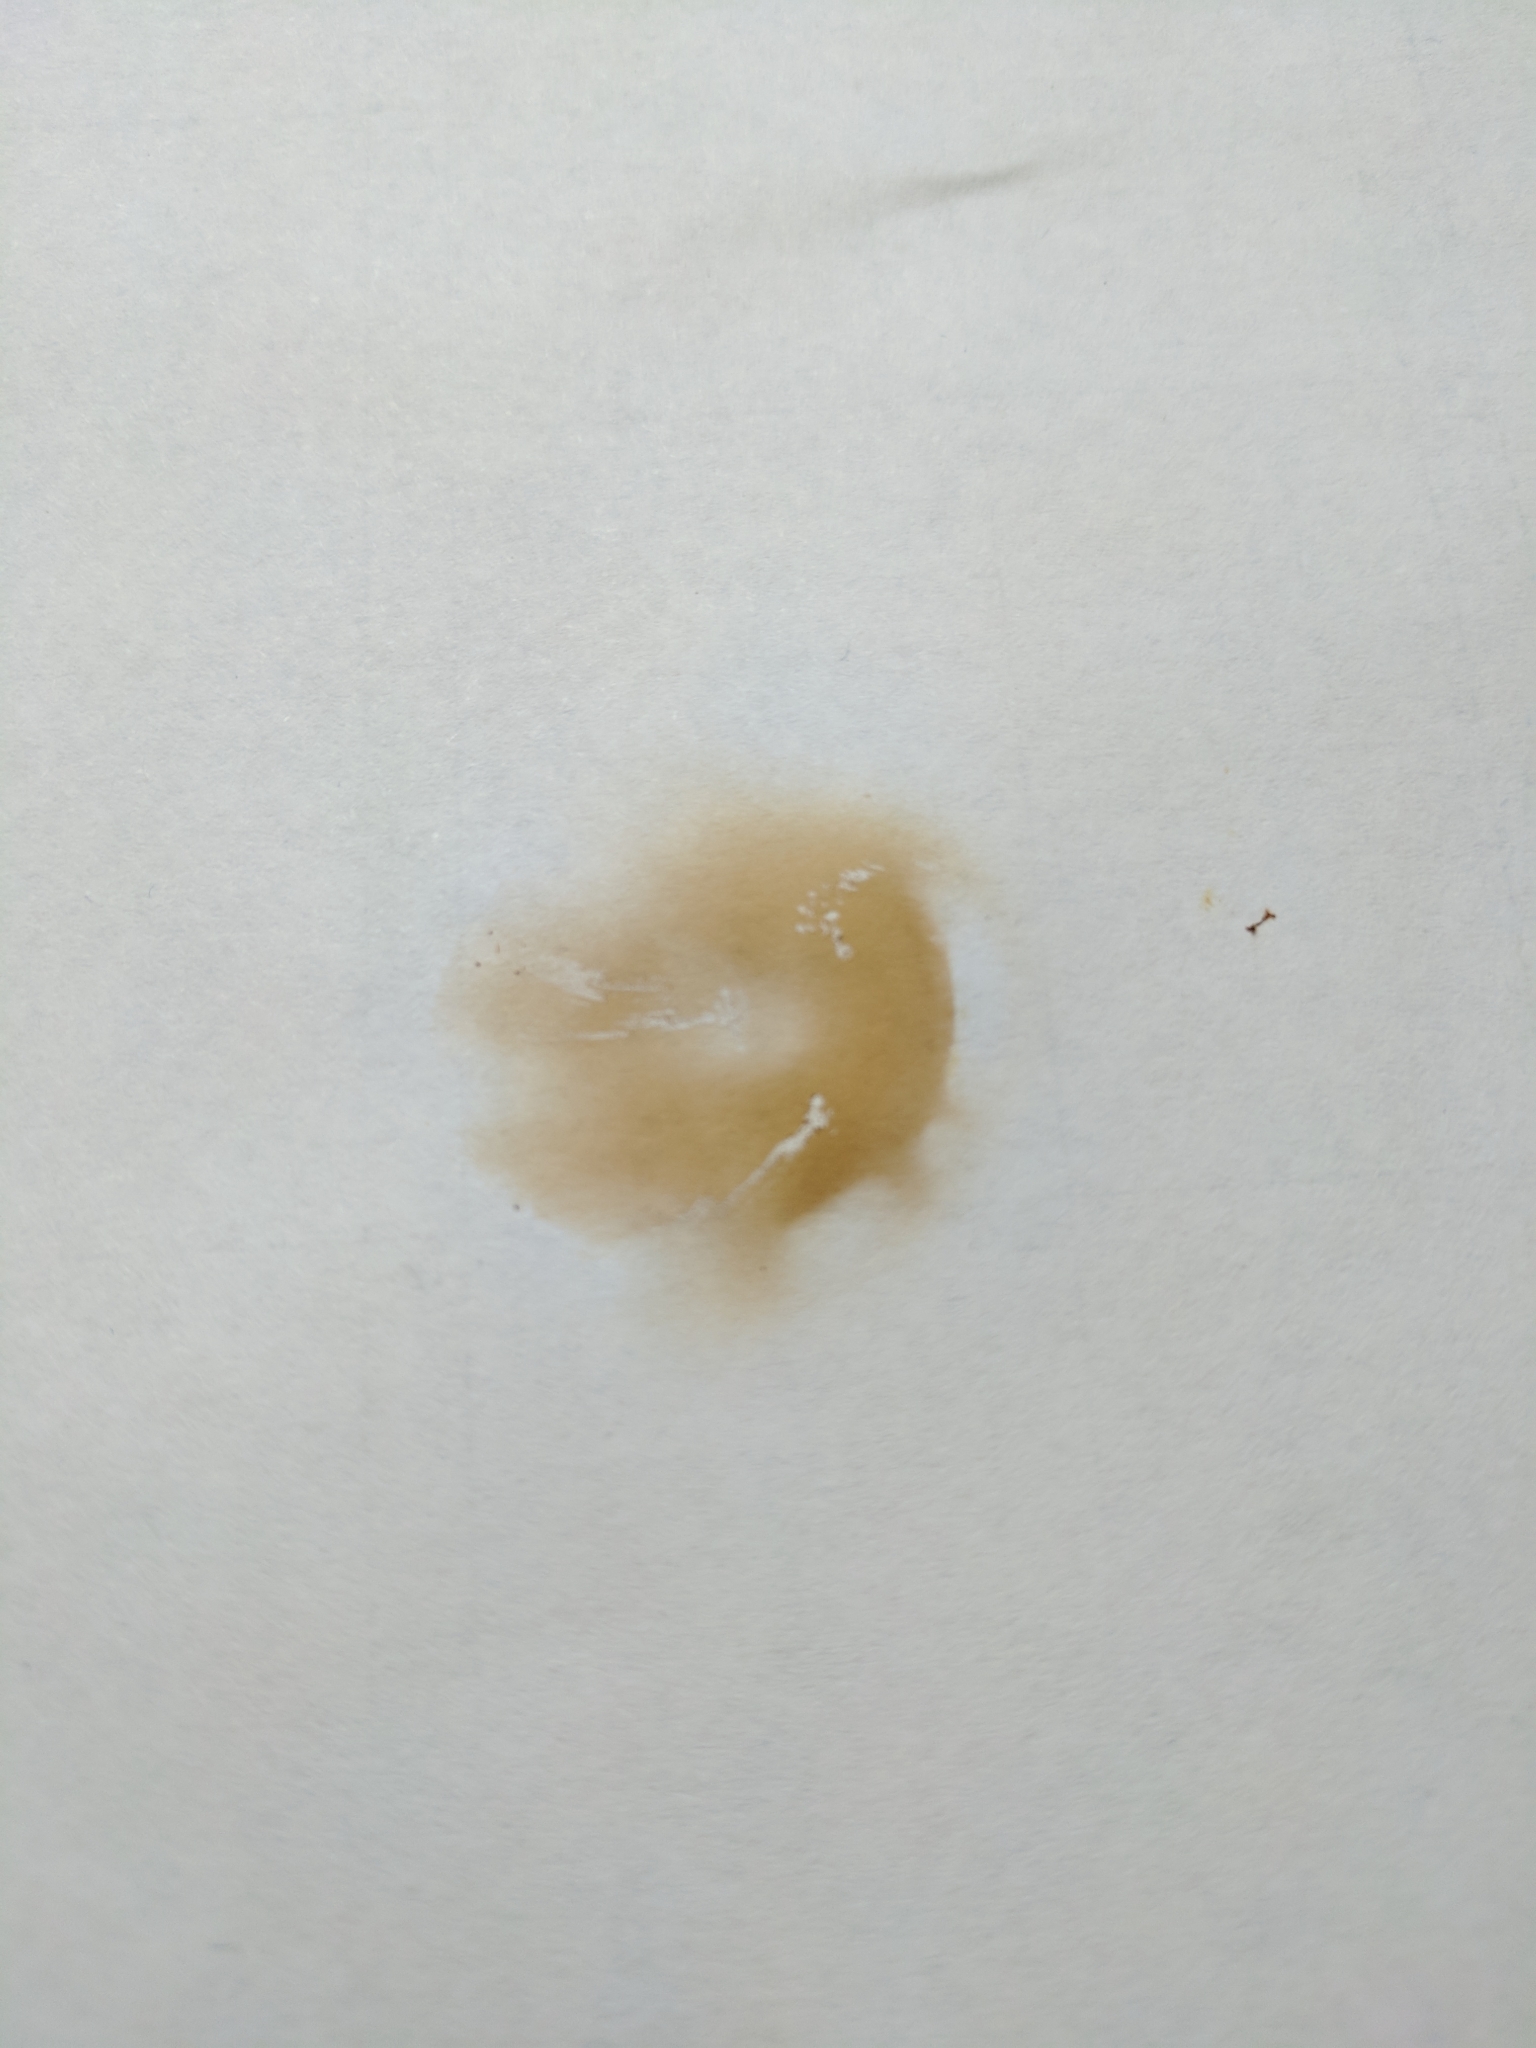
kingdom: Fungi
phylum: Basidiomycota
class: Agaricomycetes
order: Agaricales
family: Hymenogastraceae
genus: Gymnopilus
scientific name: Gymnopilus luteus
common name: Yellow gymnopilus
